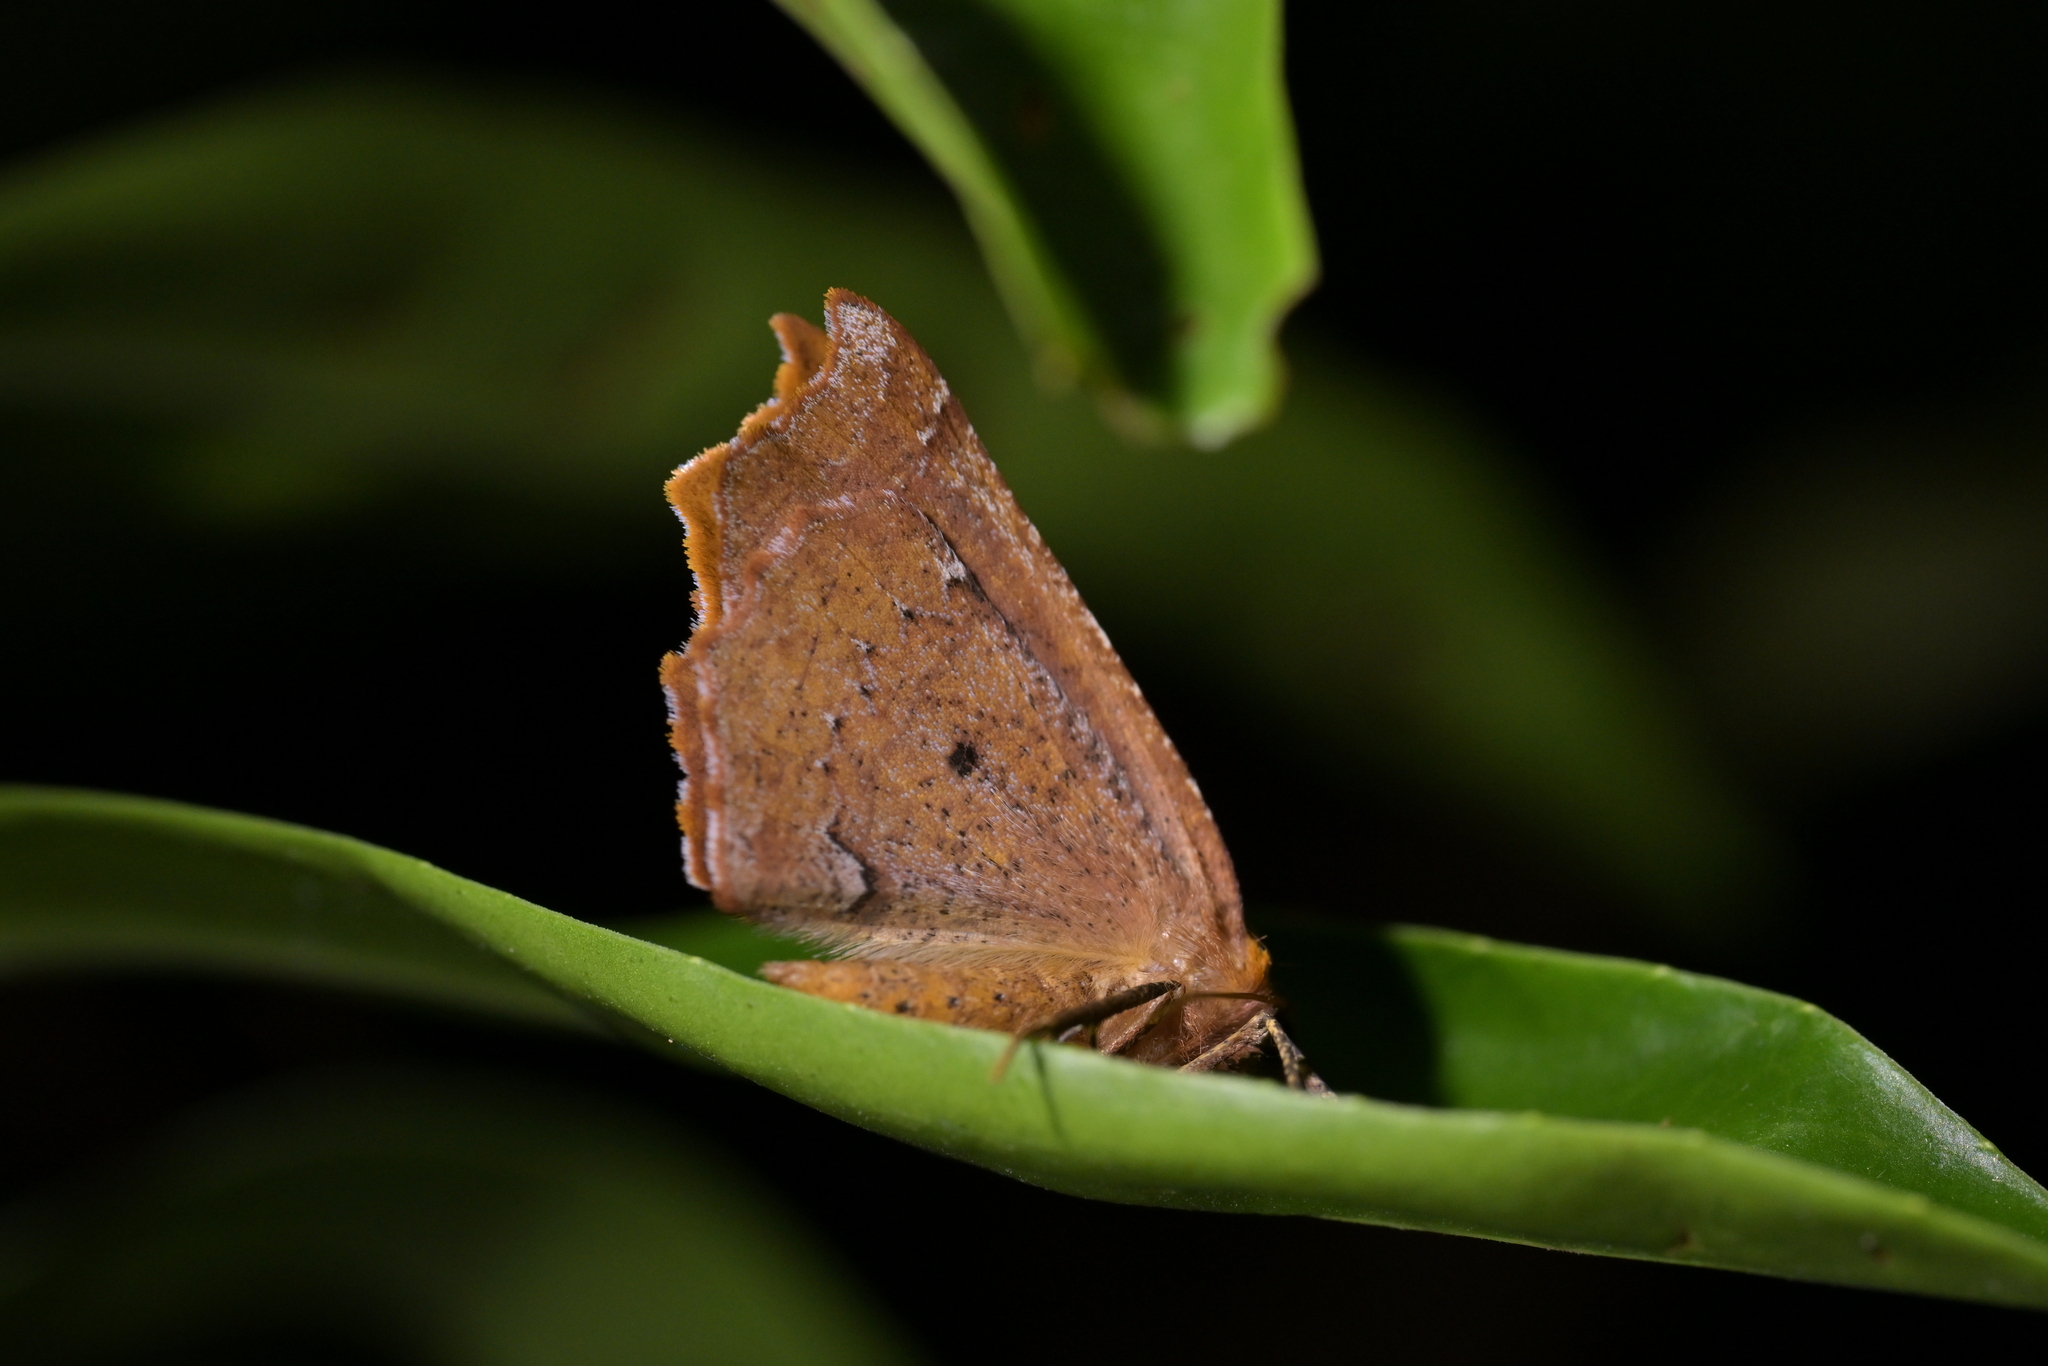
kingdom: Animalia
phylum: Arthropoda
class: Insecta
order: Lepidoptera
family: Geometridae
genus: Ischalis
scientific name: Ischalis nelsonaria
